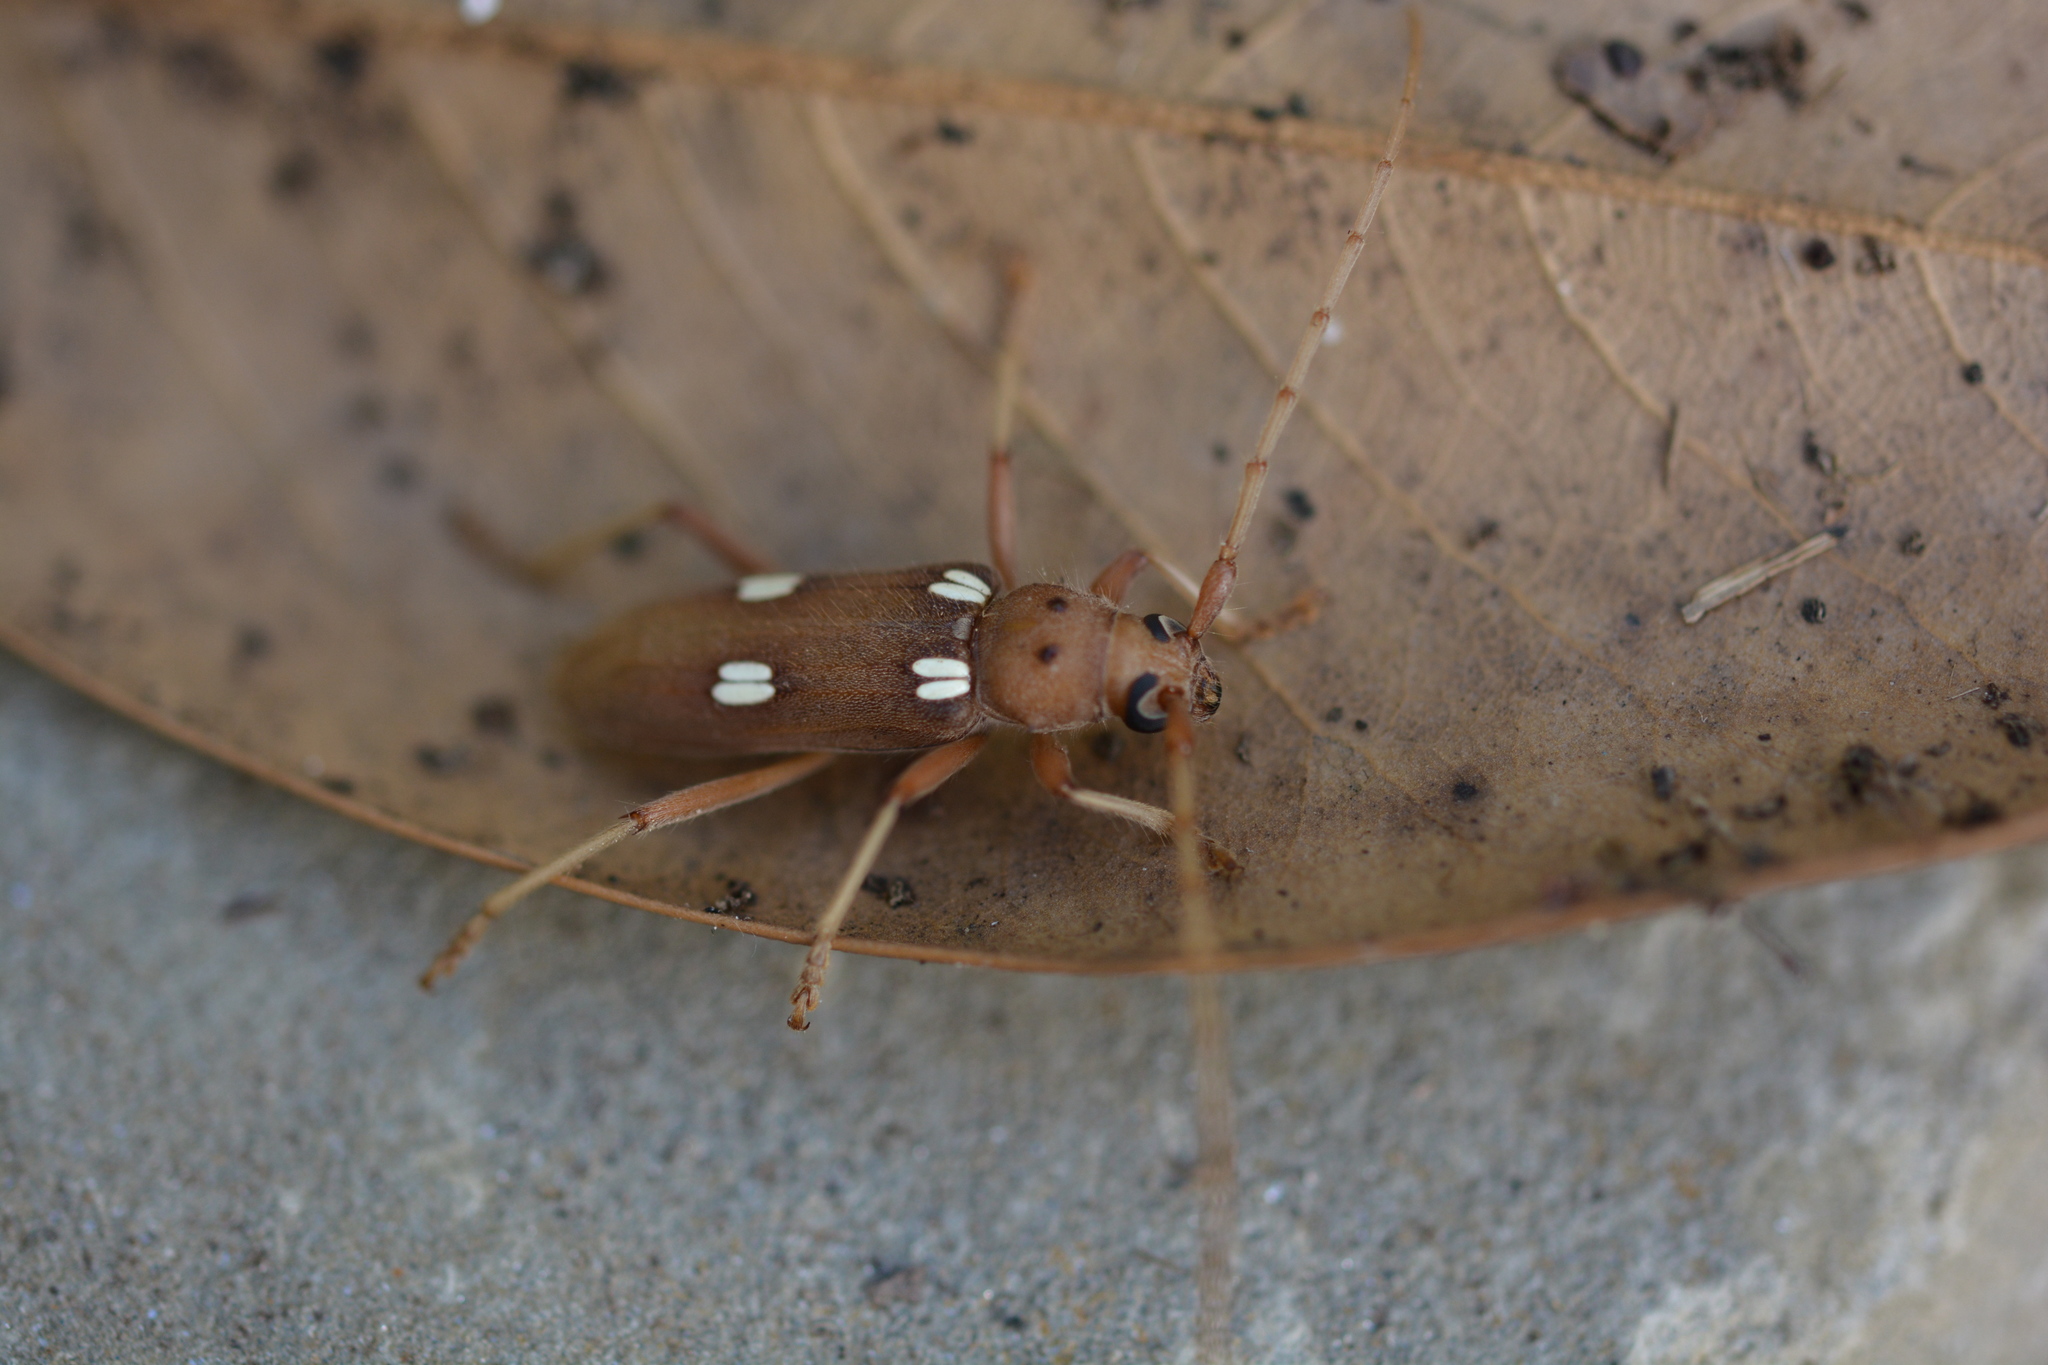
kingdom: Animalia
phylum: Arthropoda
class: Insecta
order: Coleoptera
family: Cerambycidae
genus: Eburia
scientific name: Eburia quadrigeminata
